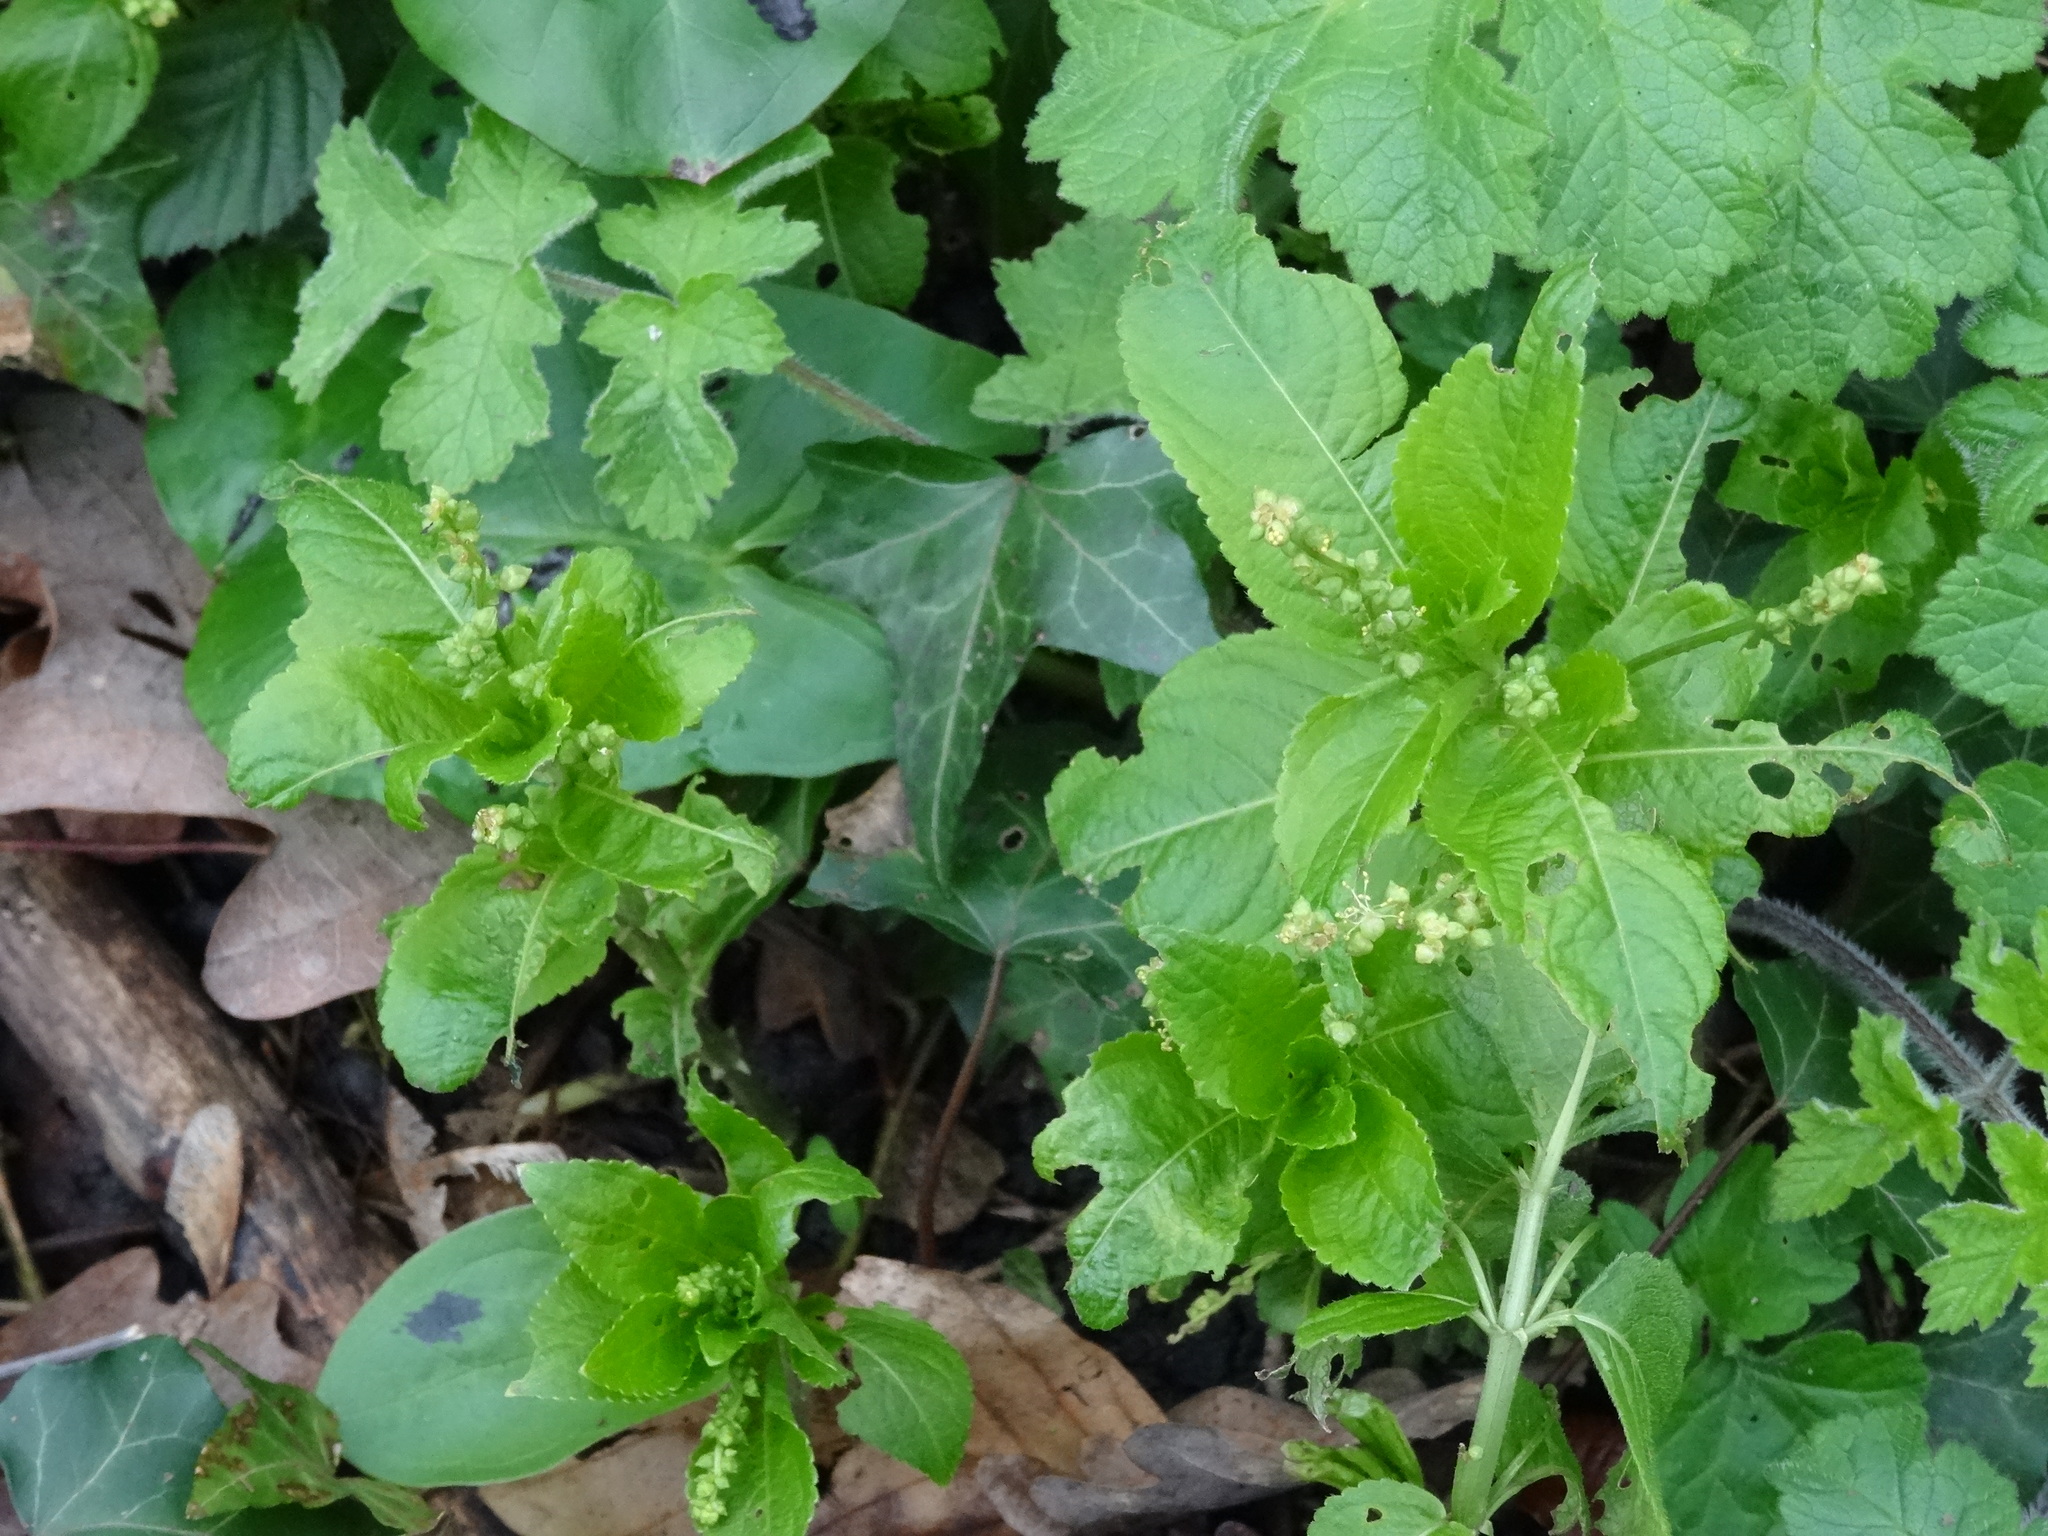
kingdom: Plantae
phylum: Tracheophyta
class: Magnoliopsida
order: Malpighiales
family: Euphorbiaceae
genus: Mercurialis
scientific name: Mercurialis perennis
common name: Dog mercury
